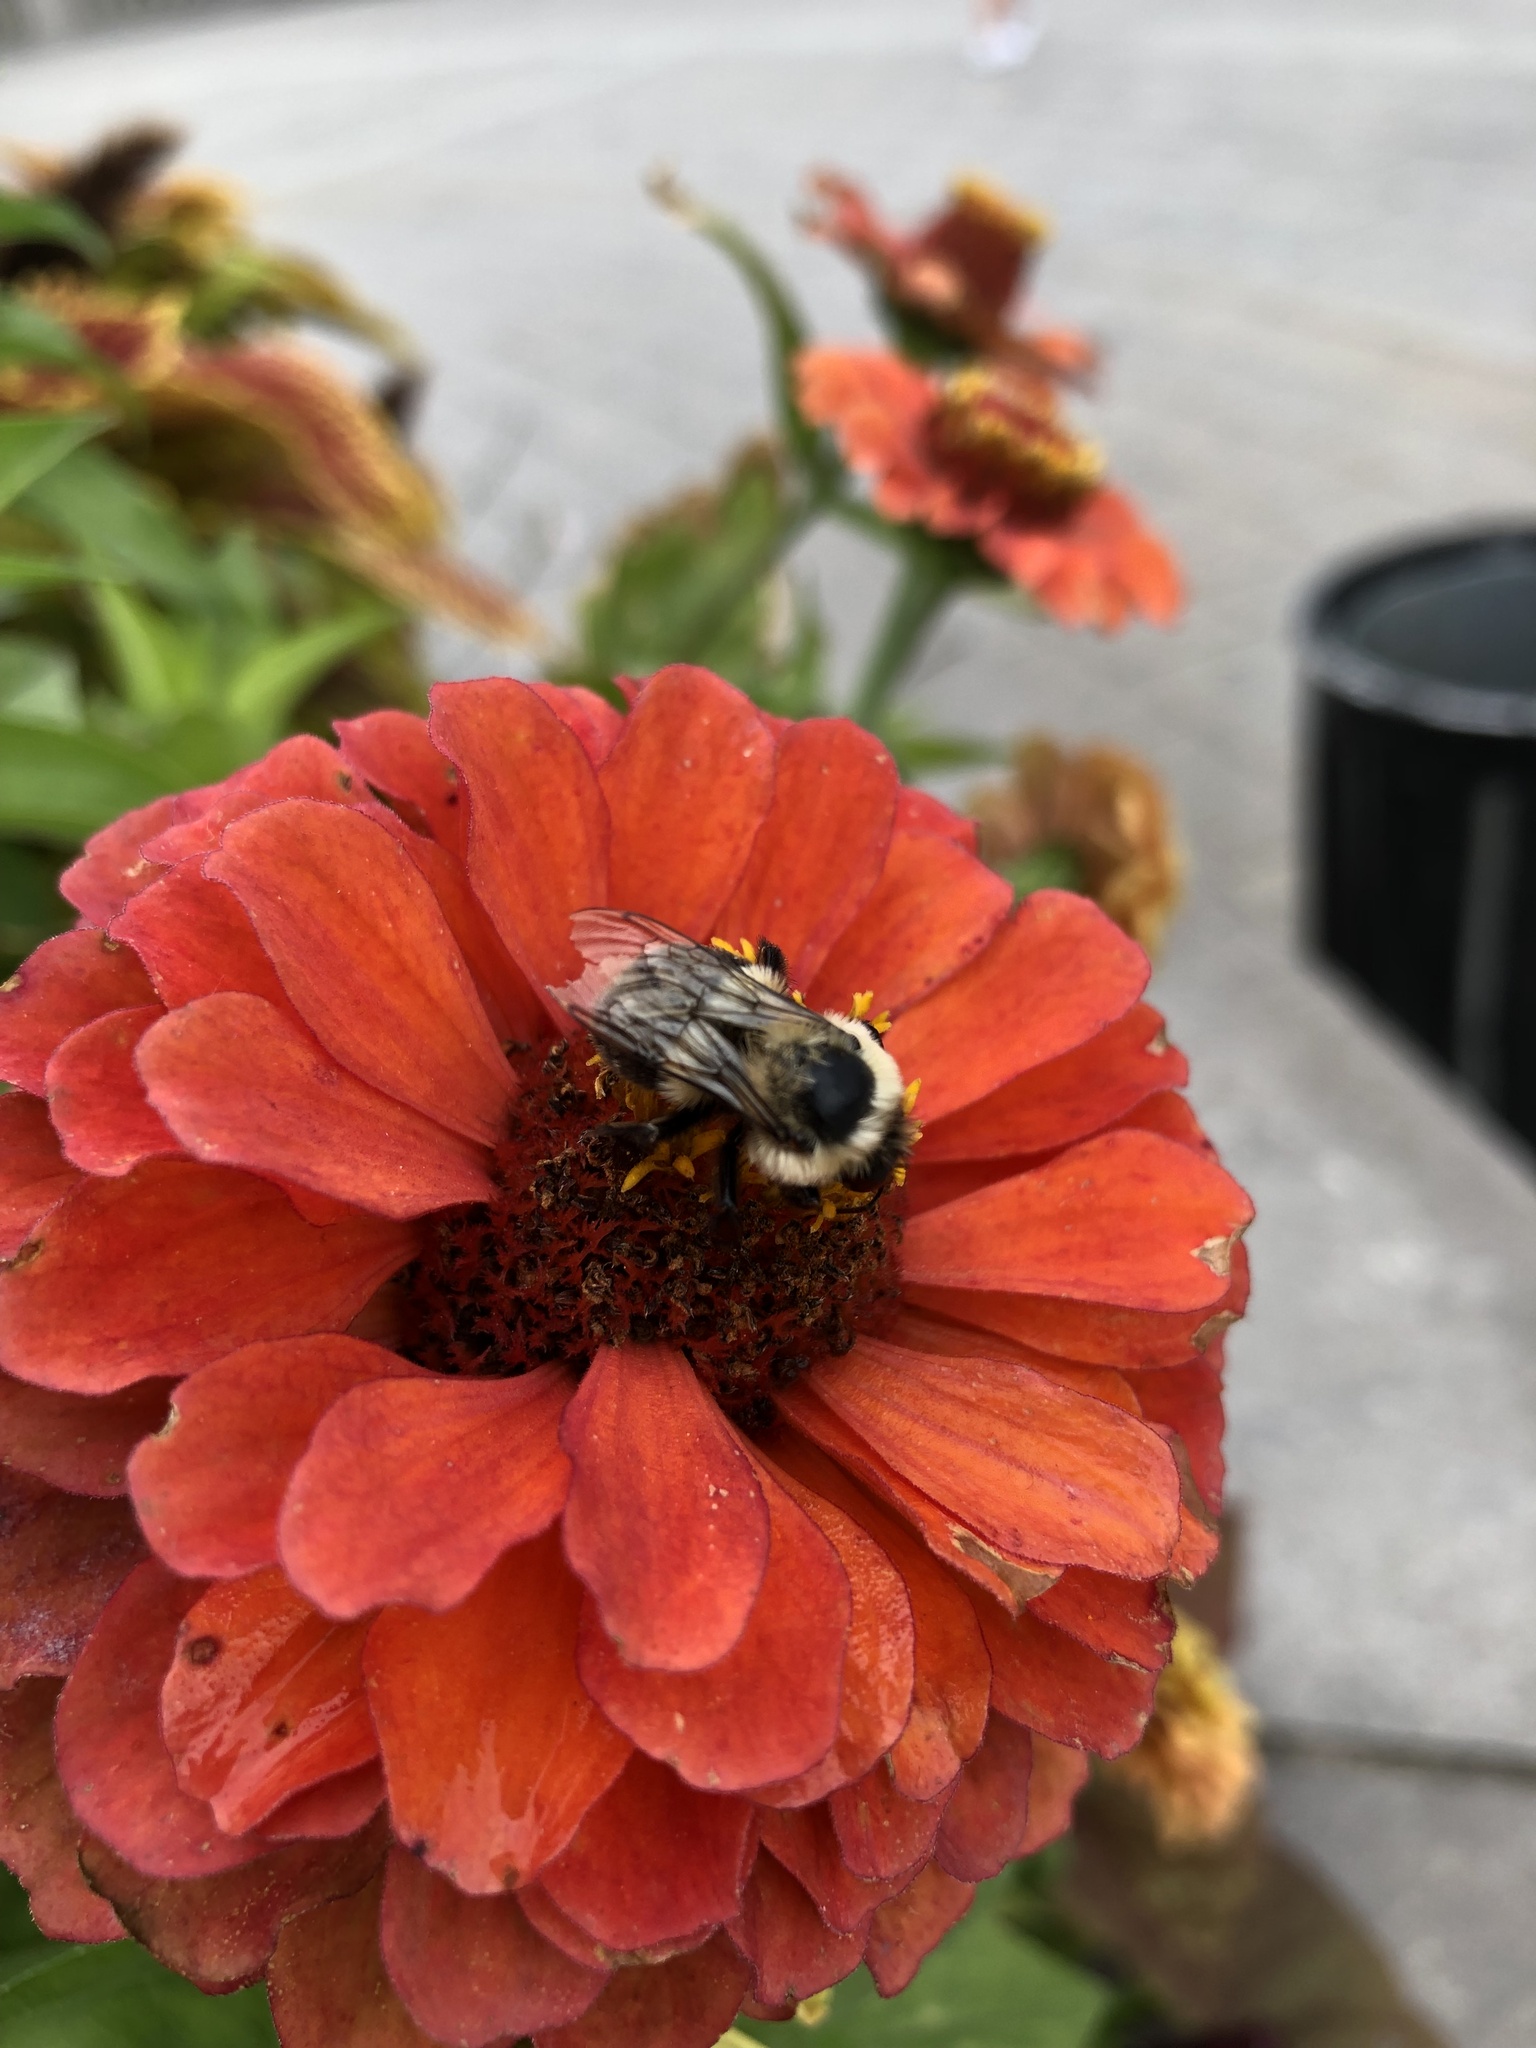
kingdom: Animalia
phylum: Arthropoda
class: Insecta
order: Hymenoptera
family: Apidae
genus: Bombus
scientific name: Bombus impatiens
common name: Common eastern bumble bee
